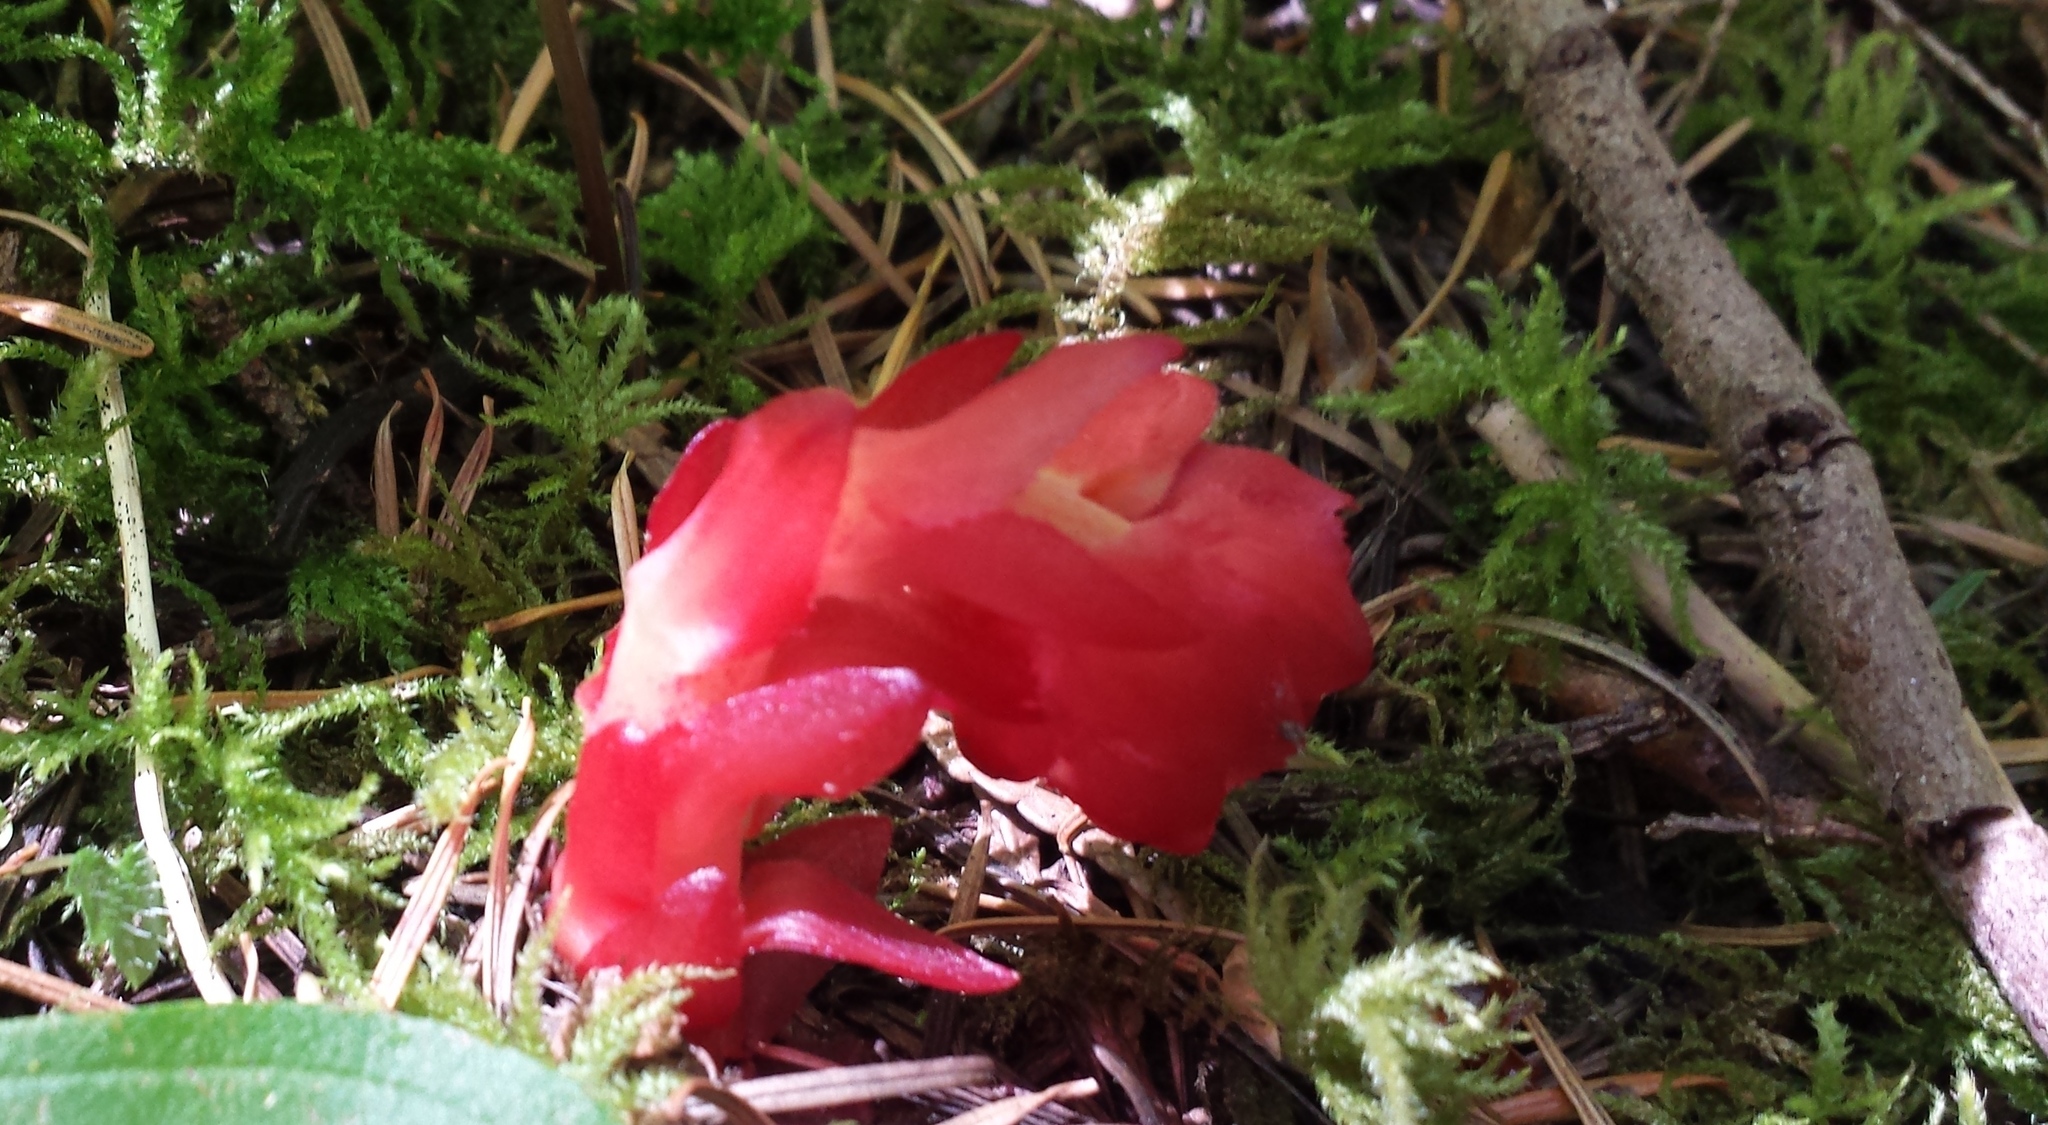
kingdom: Plantae
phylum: Tracheophyta
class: Magnoliopsida
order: Ericales
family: Ericaceae
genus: Hypopitys
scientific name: Hypopitys monotropa
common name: Yellow bird's-nest
